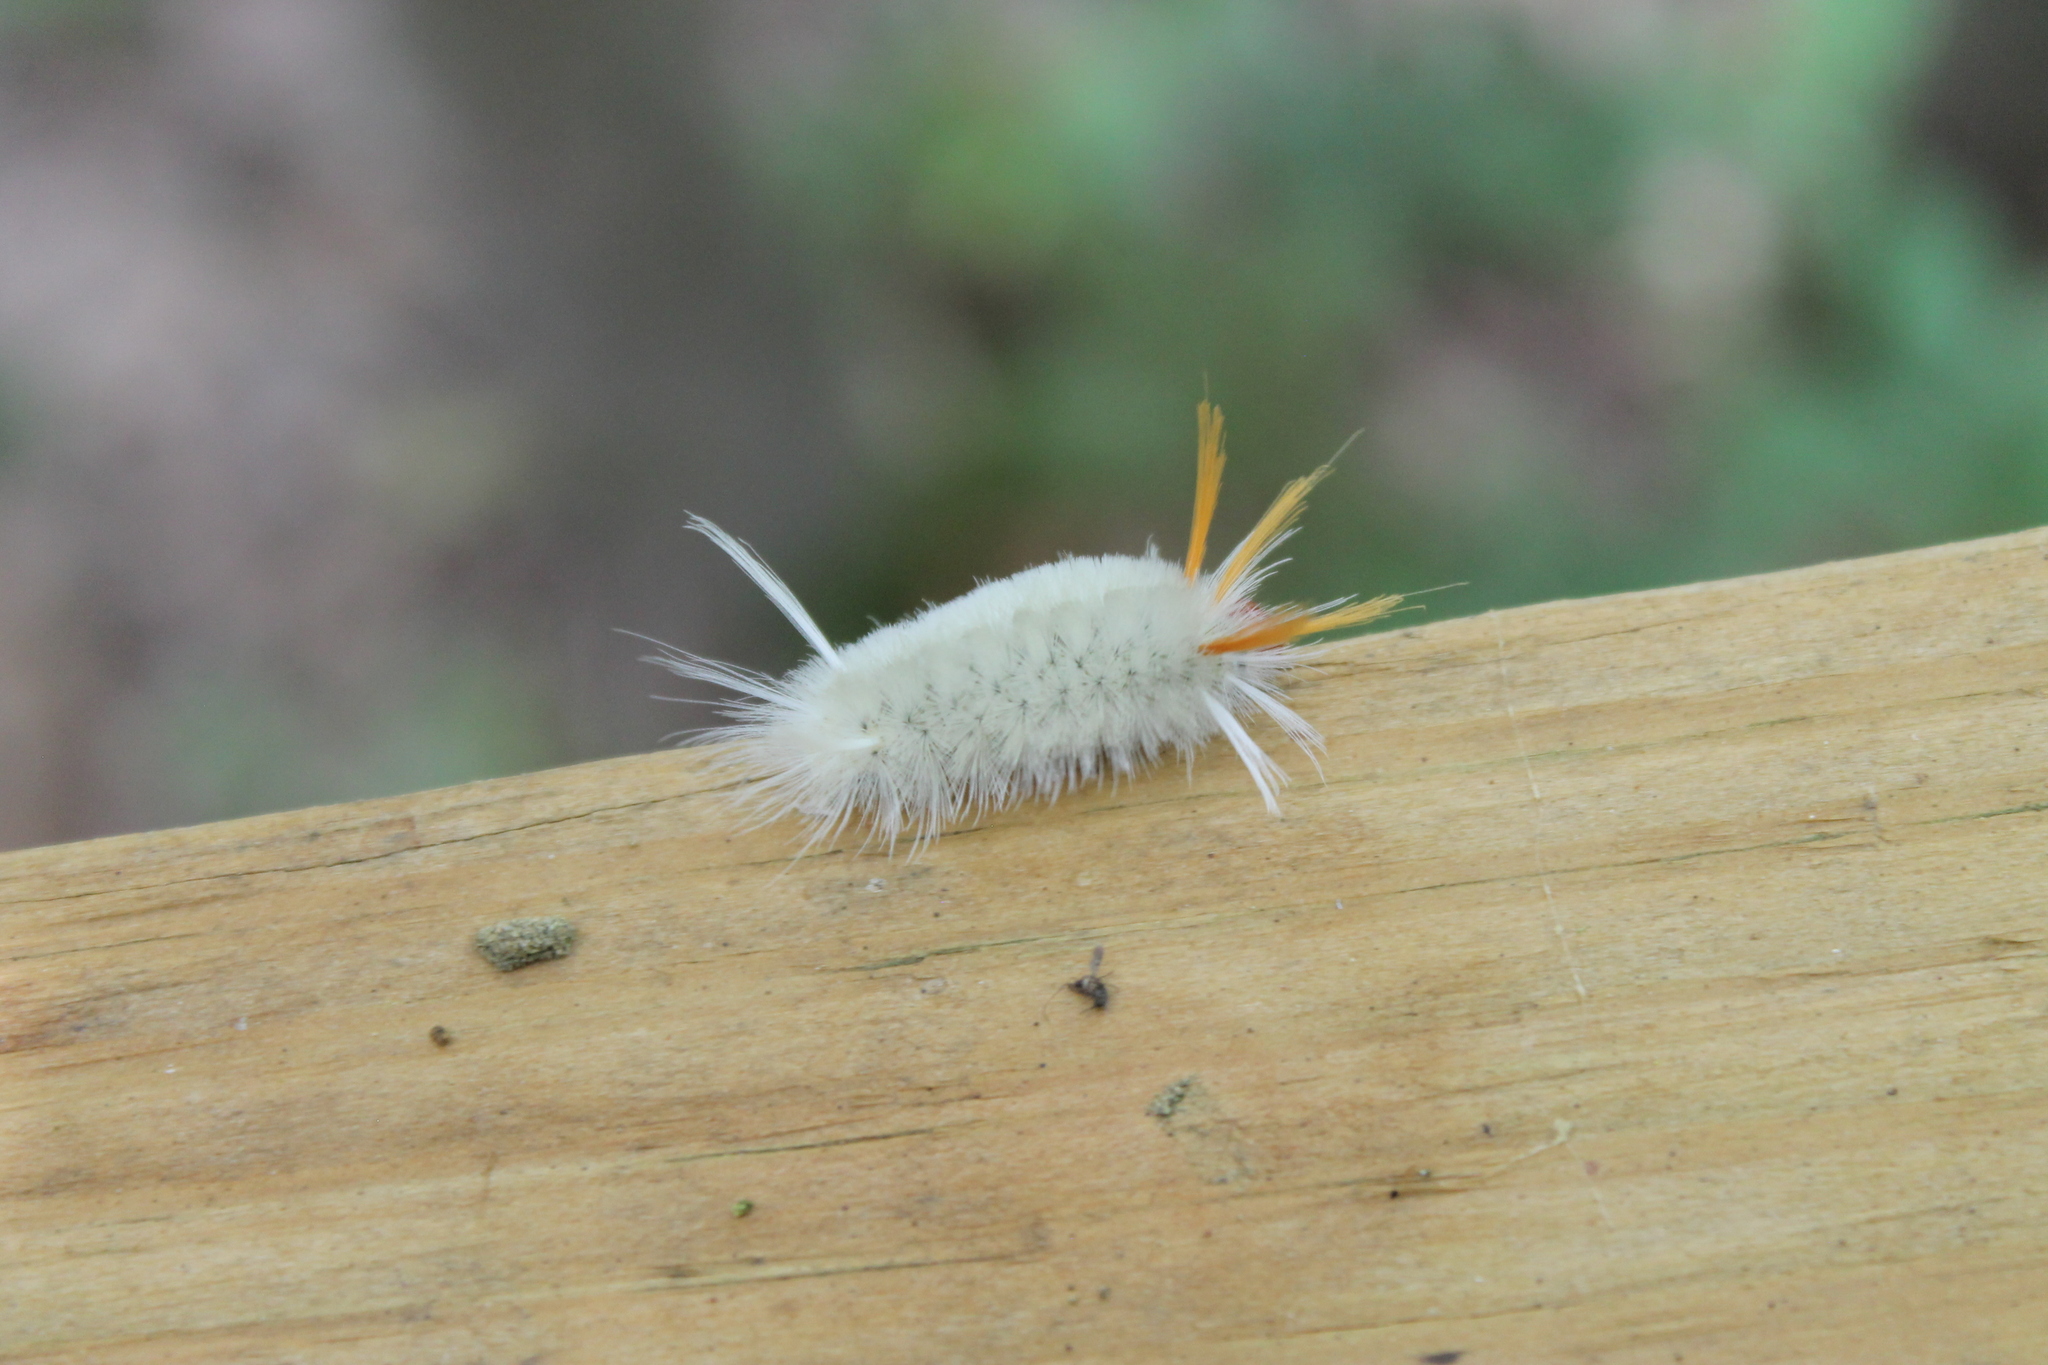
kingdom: Animalia
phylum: Arthropoda
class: Insecta
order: Lepidoptera
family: Erebidae
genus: Halysidota
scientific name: Halysidota harrisii
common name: Sycamore tussock moth
